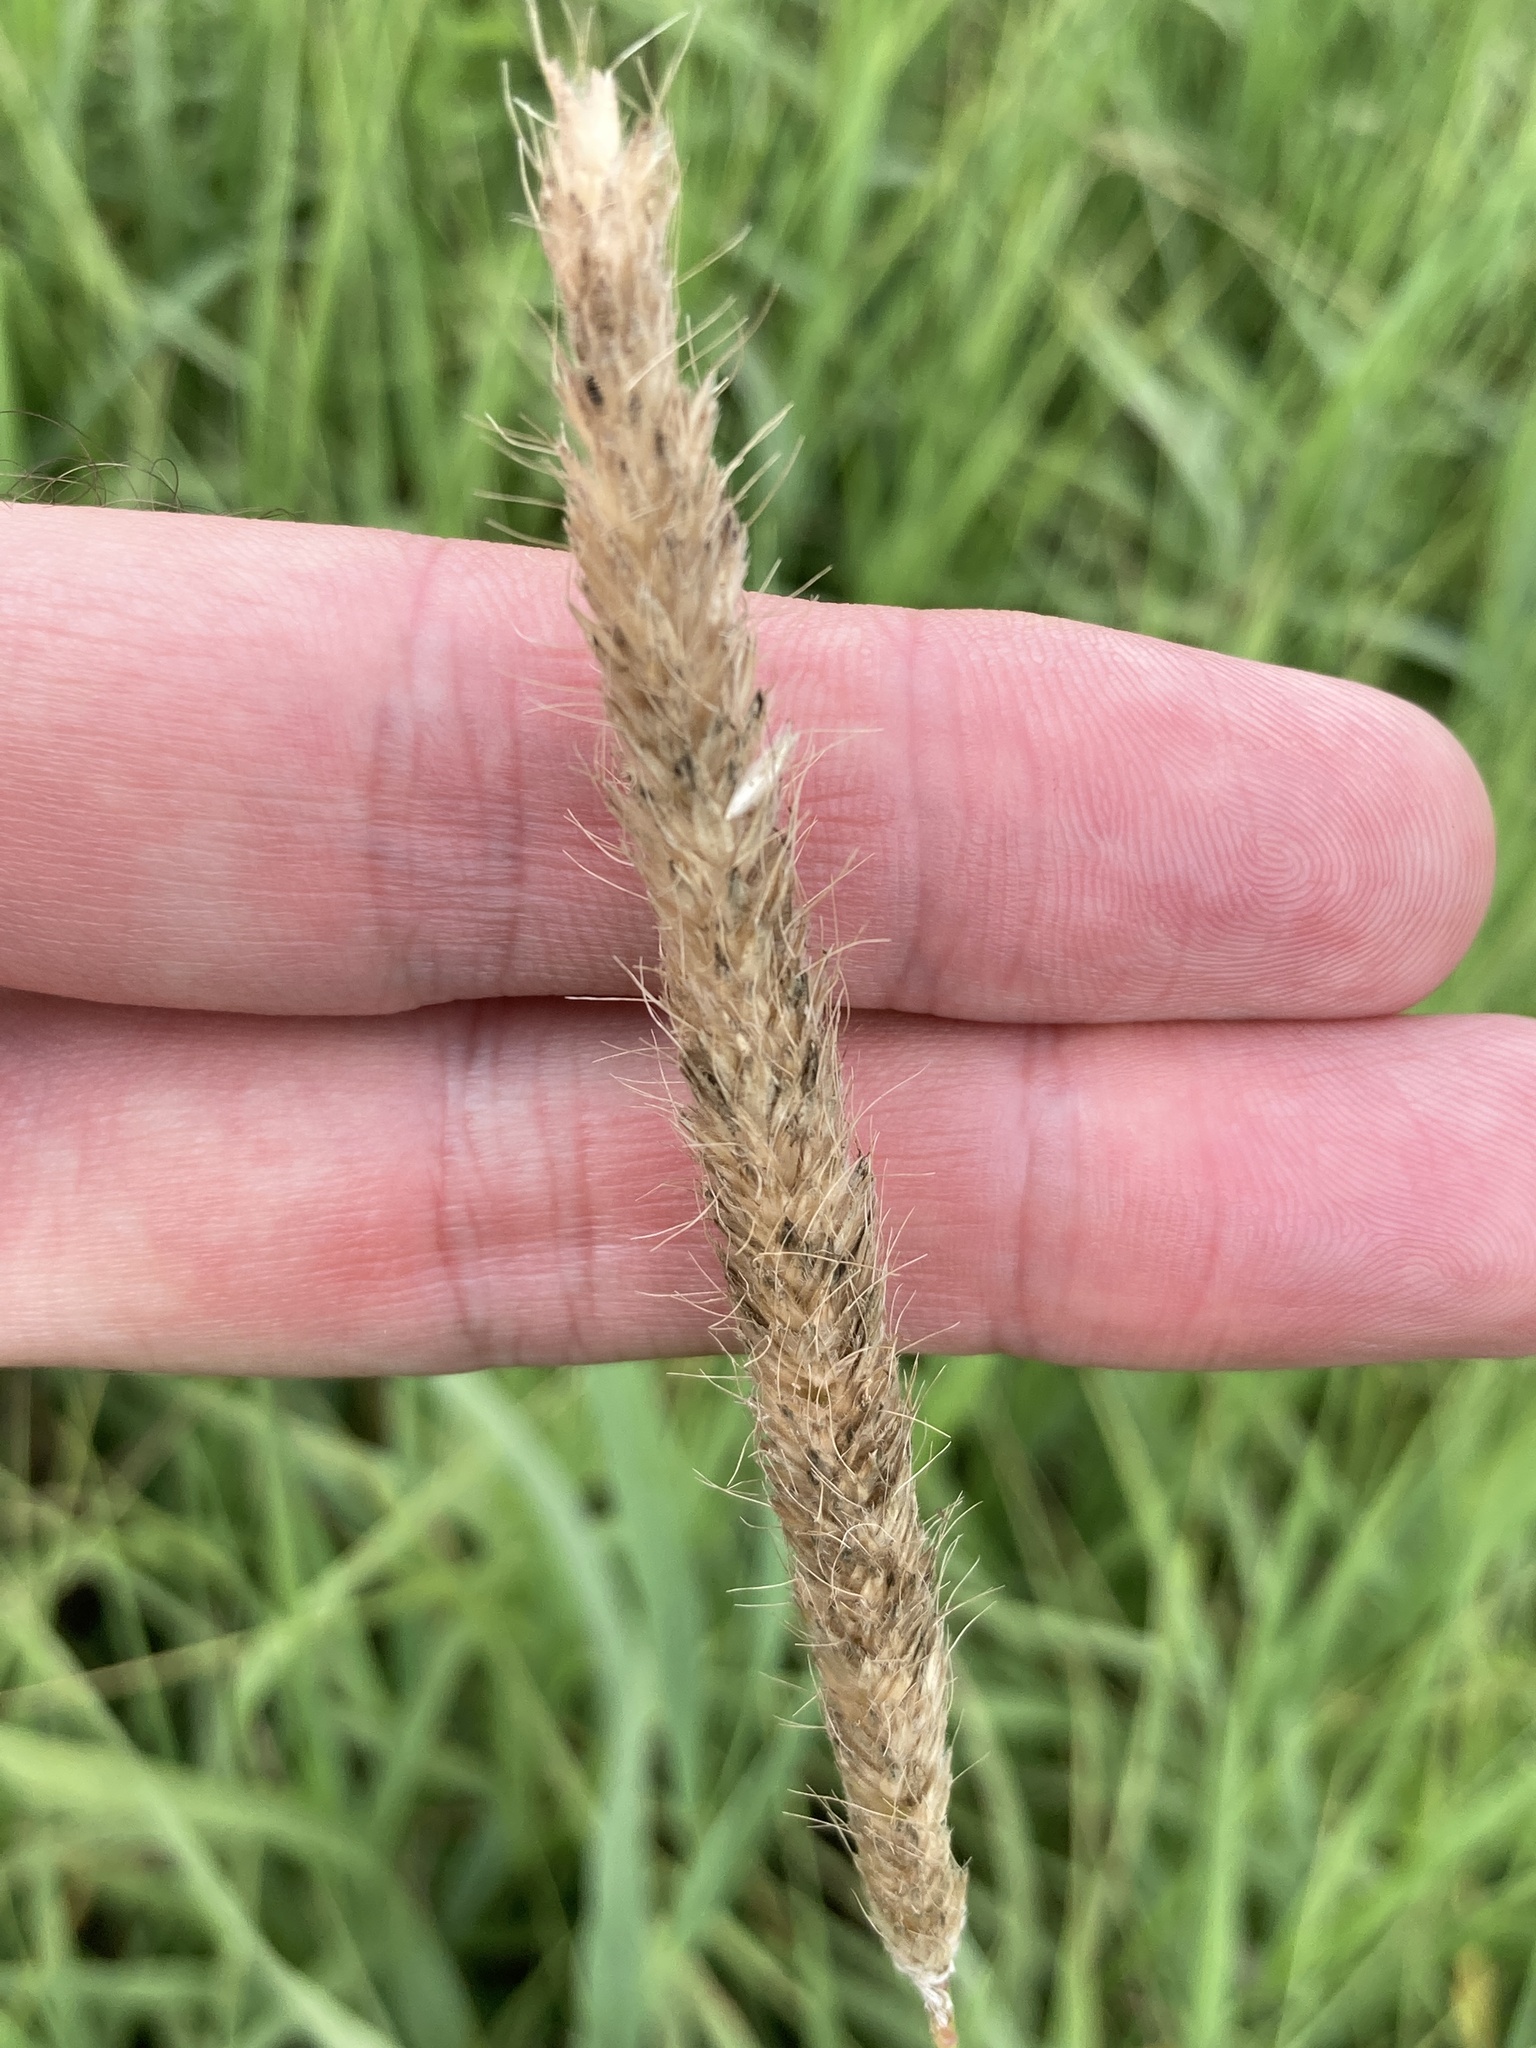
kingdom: Plantae
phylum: Tracheophyta
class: Liliopsida
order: Poales
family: Poaceae
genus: Alopecurus
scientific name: Alopecurus pratensis
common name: Meadow foxtail
